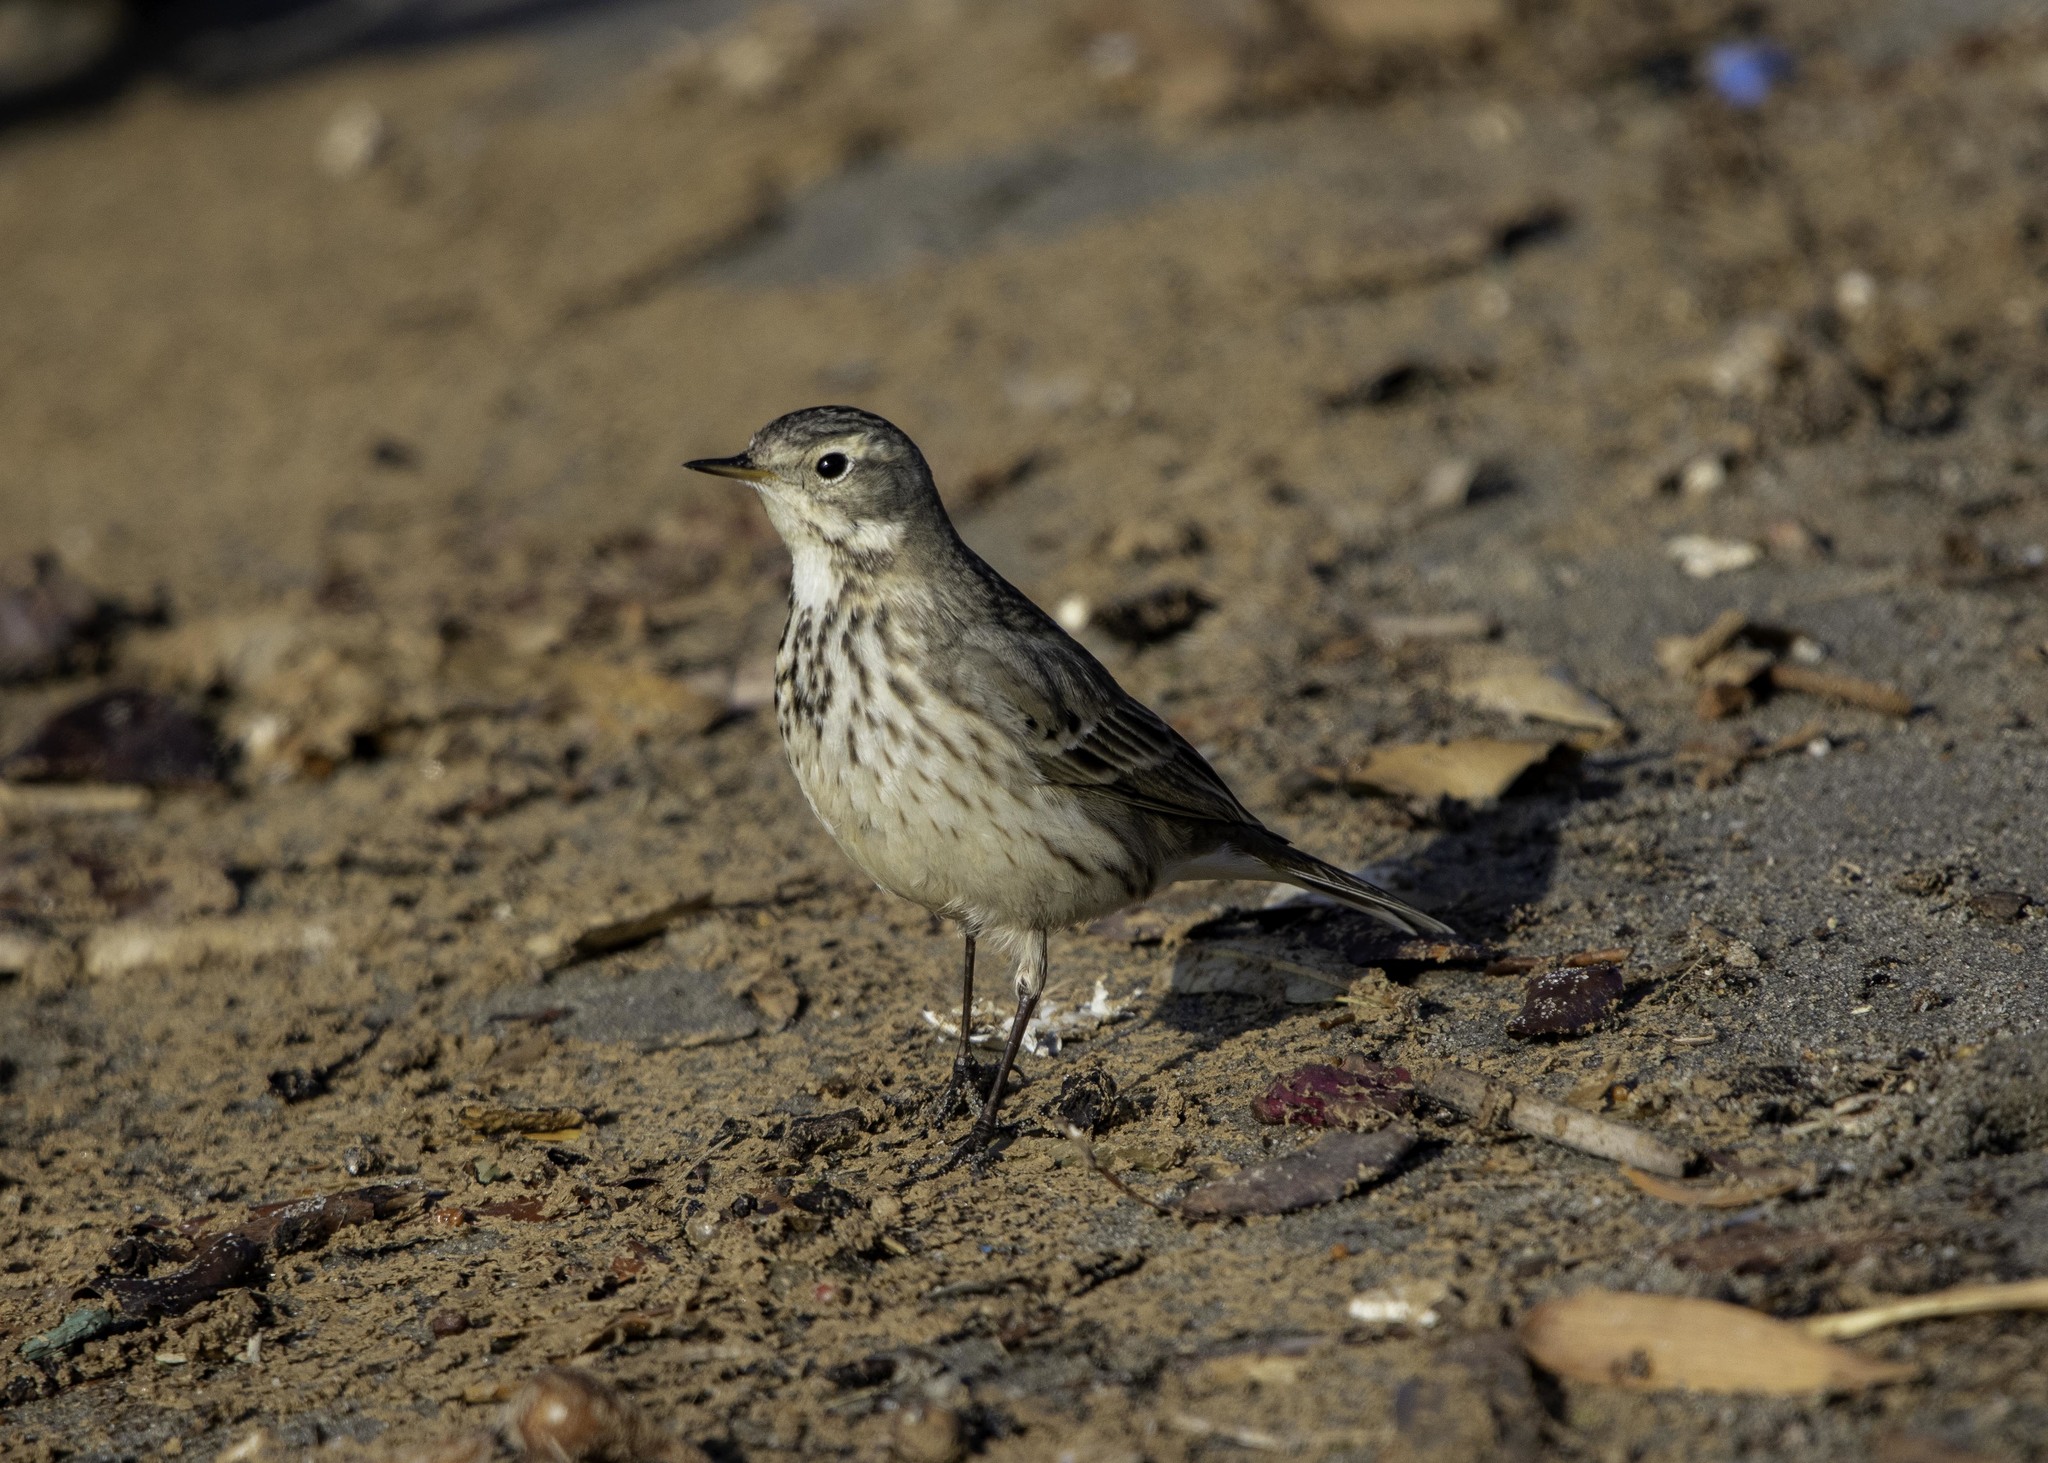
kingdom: Animalia
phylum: Chordata
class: Aves
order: Passeriformes
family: Motacillidae
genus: Anthus
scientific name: Anthus rubescens
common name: Buff-bellied pipit
